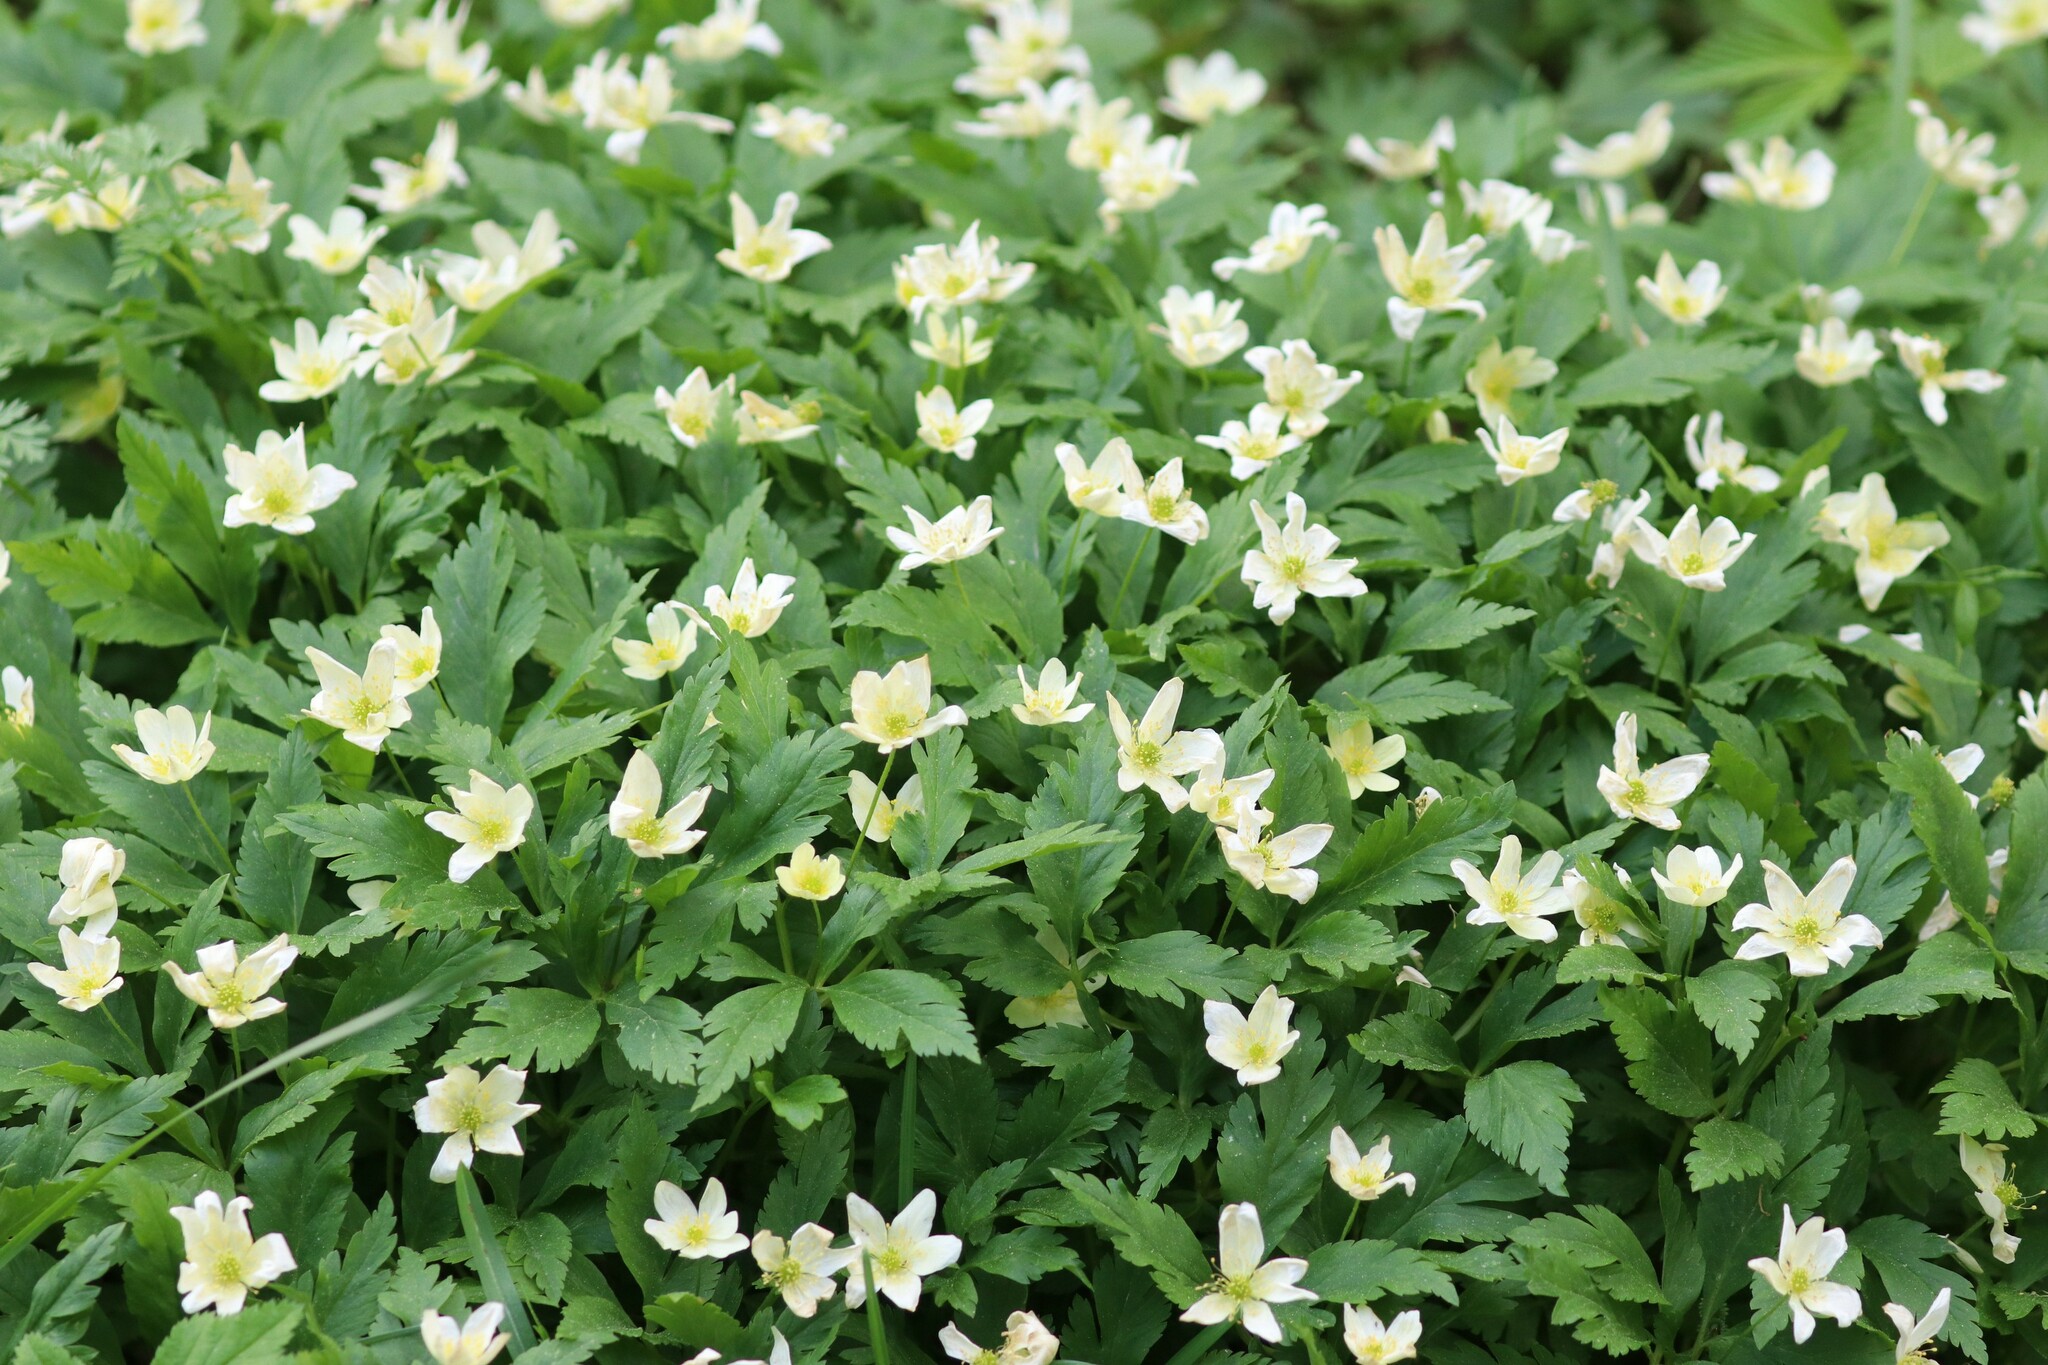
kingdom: Plantae
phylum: Tracheophyta
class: Magnoliopsida
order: Ranunculales
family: Ranunculaceae
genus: Anemone
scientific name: Anemone korzchinskyi
